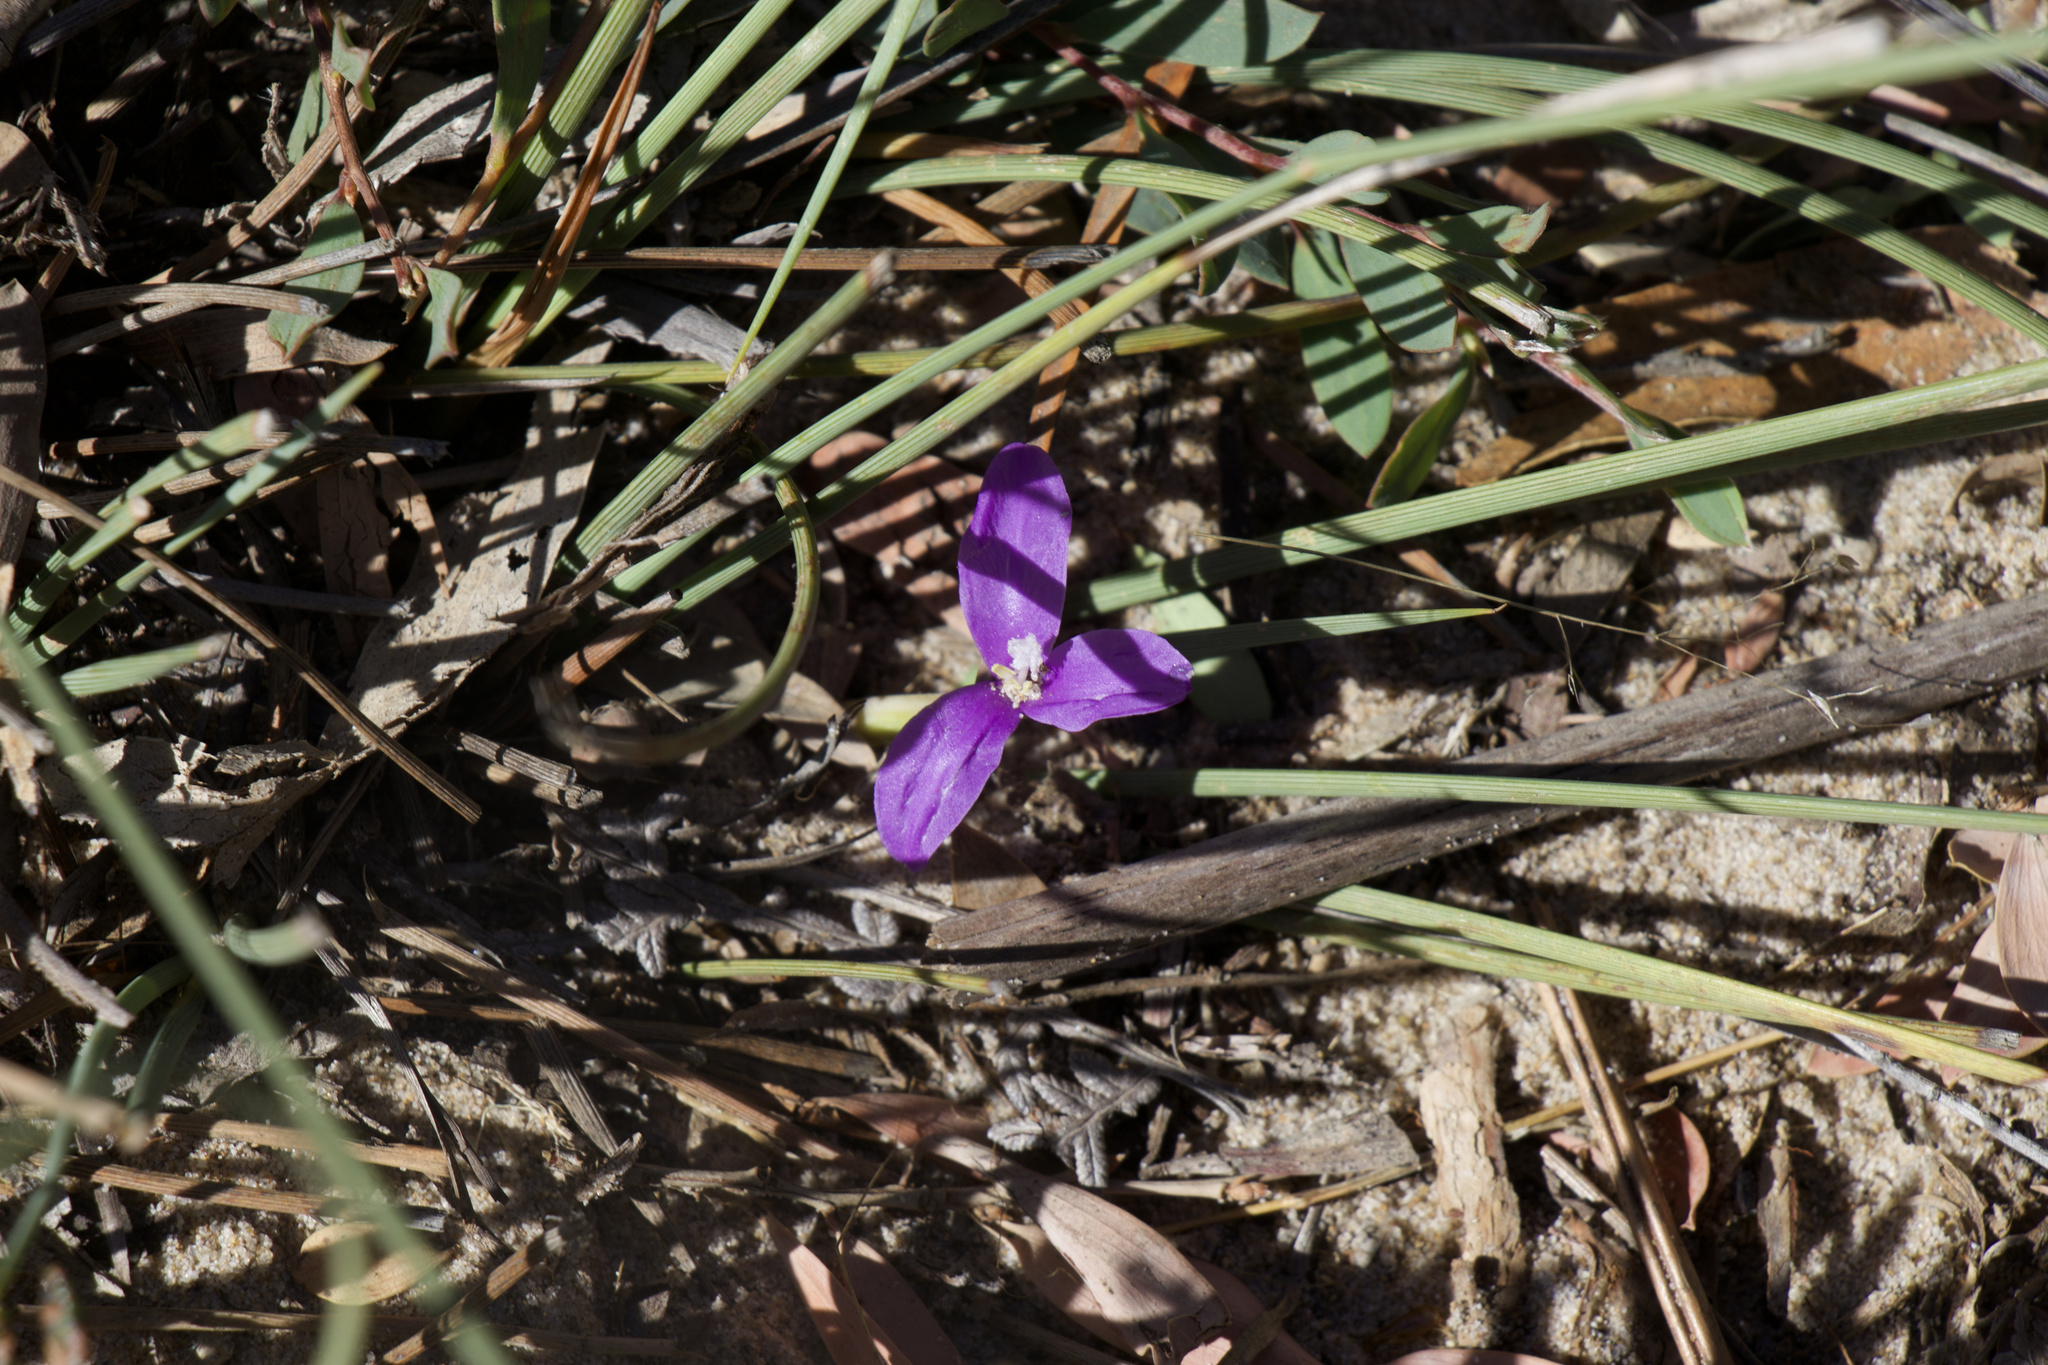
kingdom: Plantae
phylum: Tracheophyta
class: Liliopsida
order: Asparagales
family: Iridaceae
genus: Patersonia
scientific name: Patersonia fragilis
